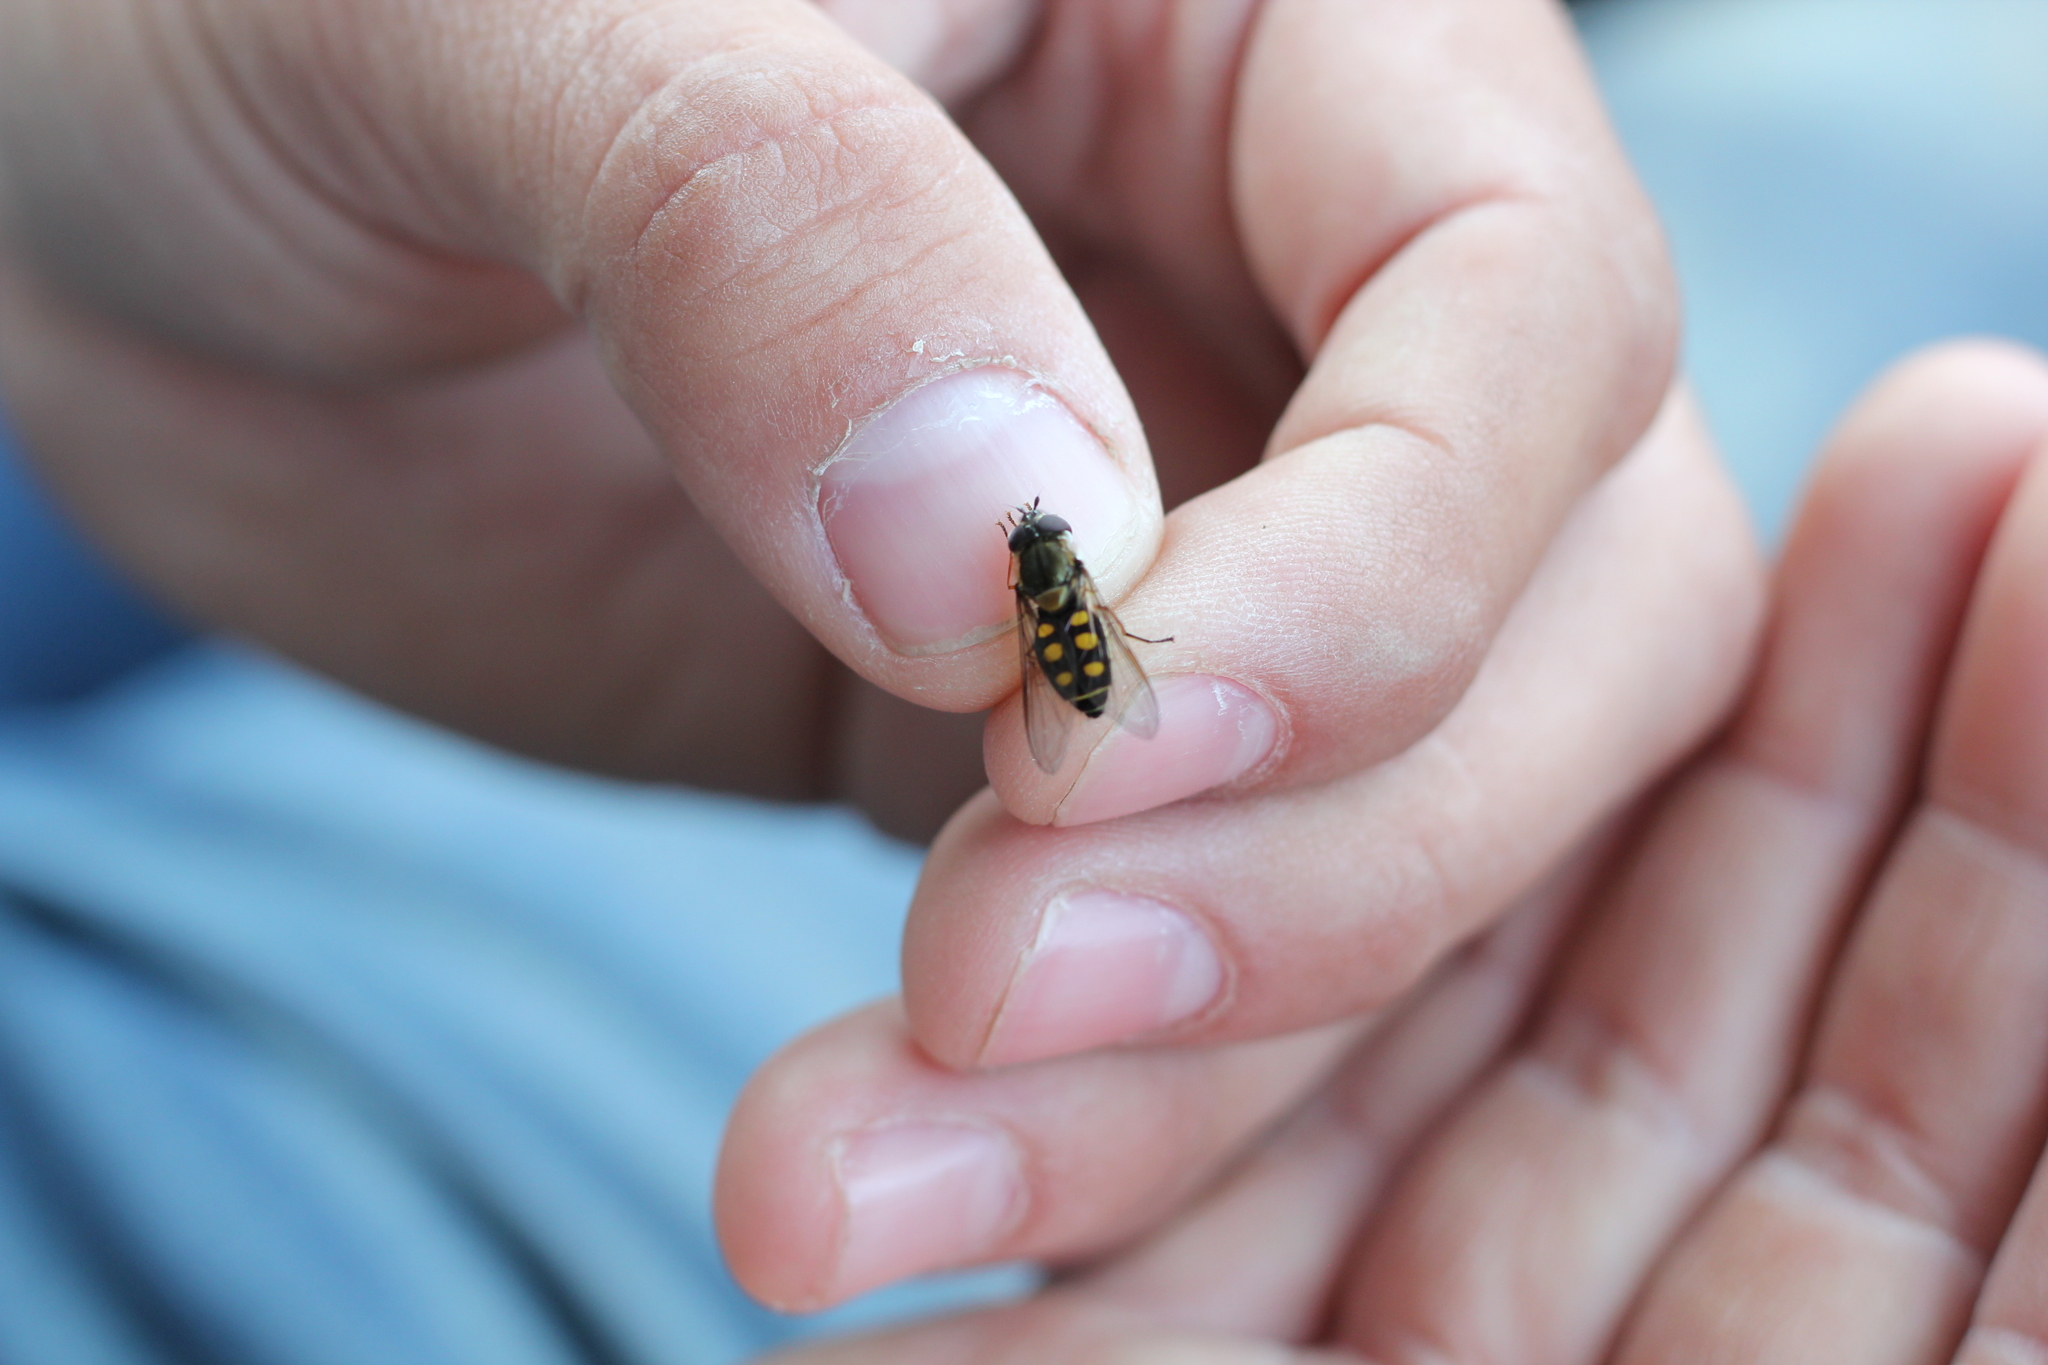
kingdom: Animalia
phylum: Arthropoda
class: Insecta
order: Diptera
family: Syrphidae
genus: Syrphus
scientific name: Syrphus octomaculatus
